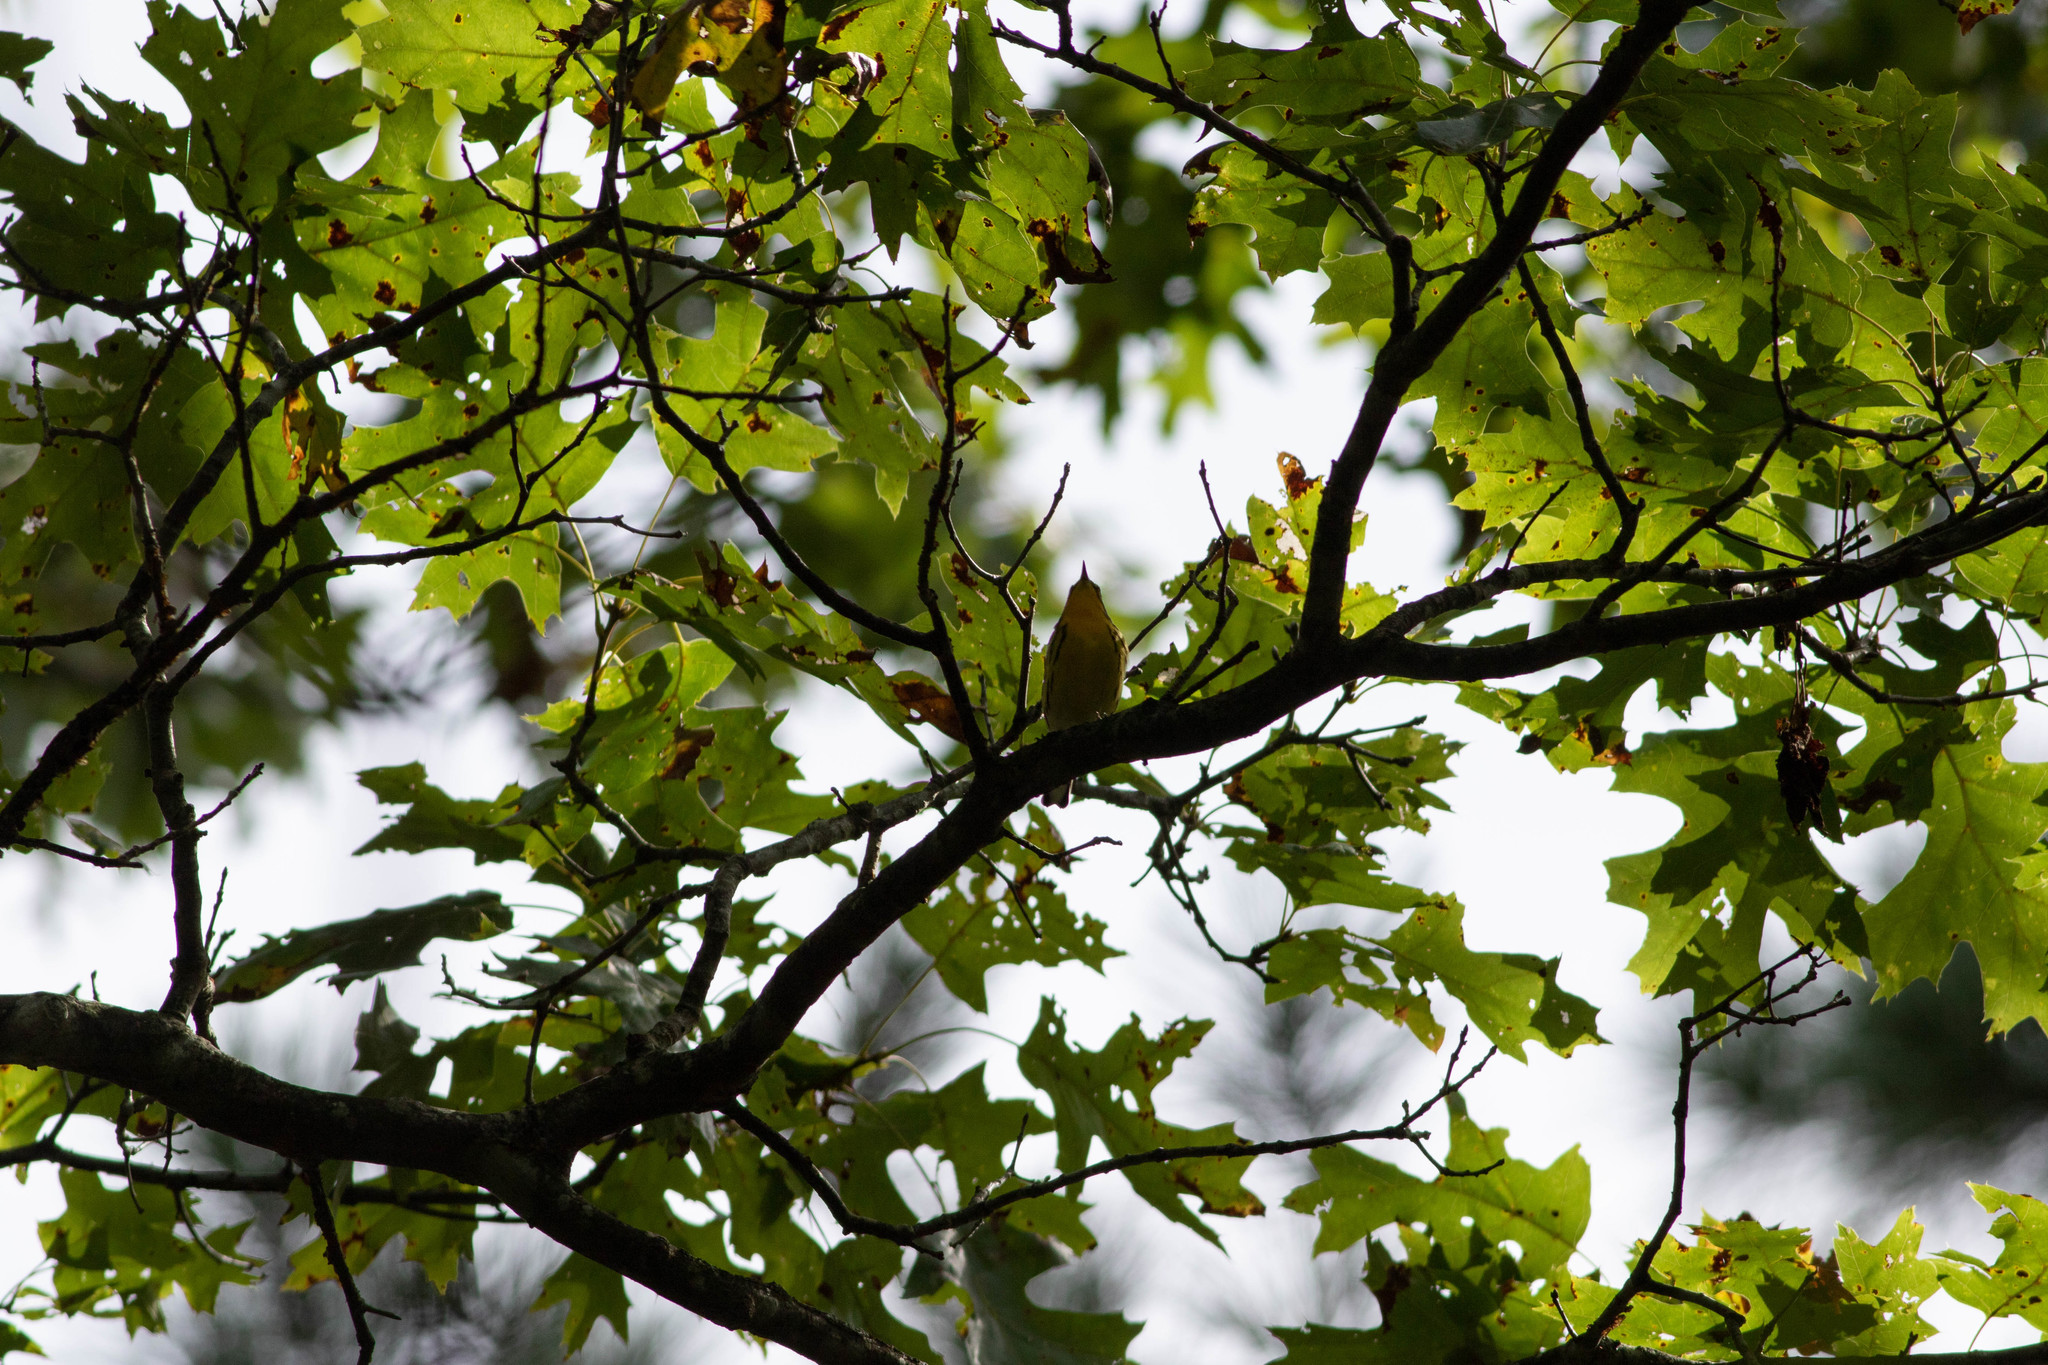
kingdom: Animalia
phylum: Chordata
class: Aves
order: Passeriformes
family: Parulidae
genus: Setophaga
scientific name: Setophaga fusca
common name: Blackburnian warbler
